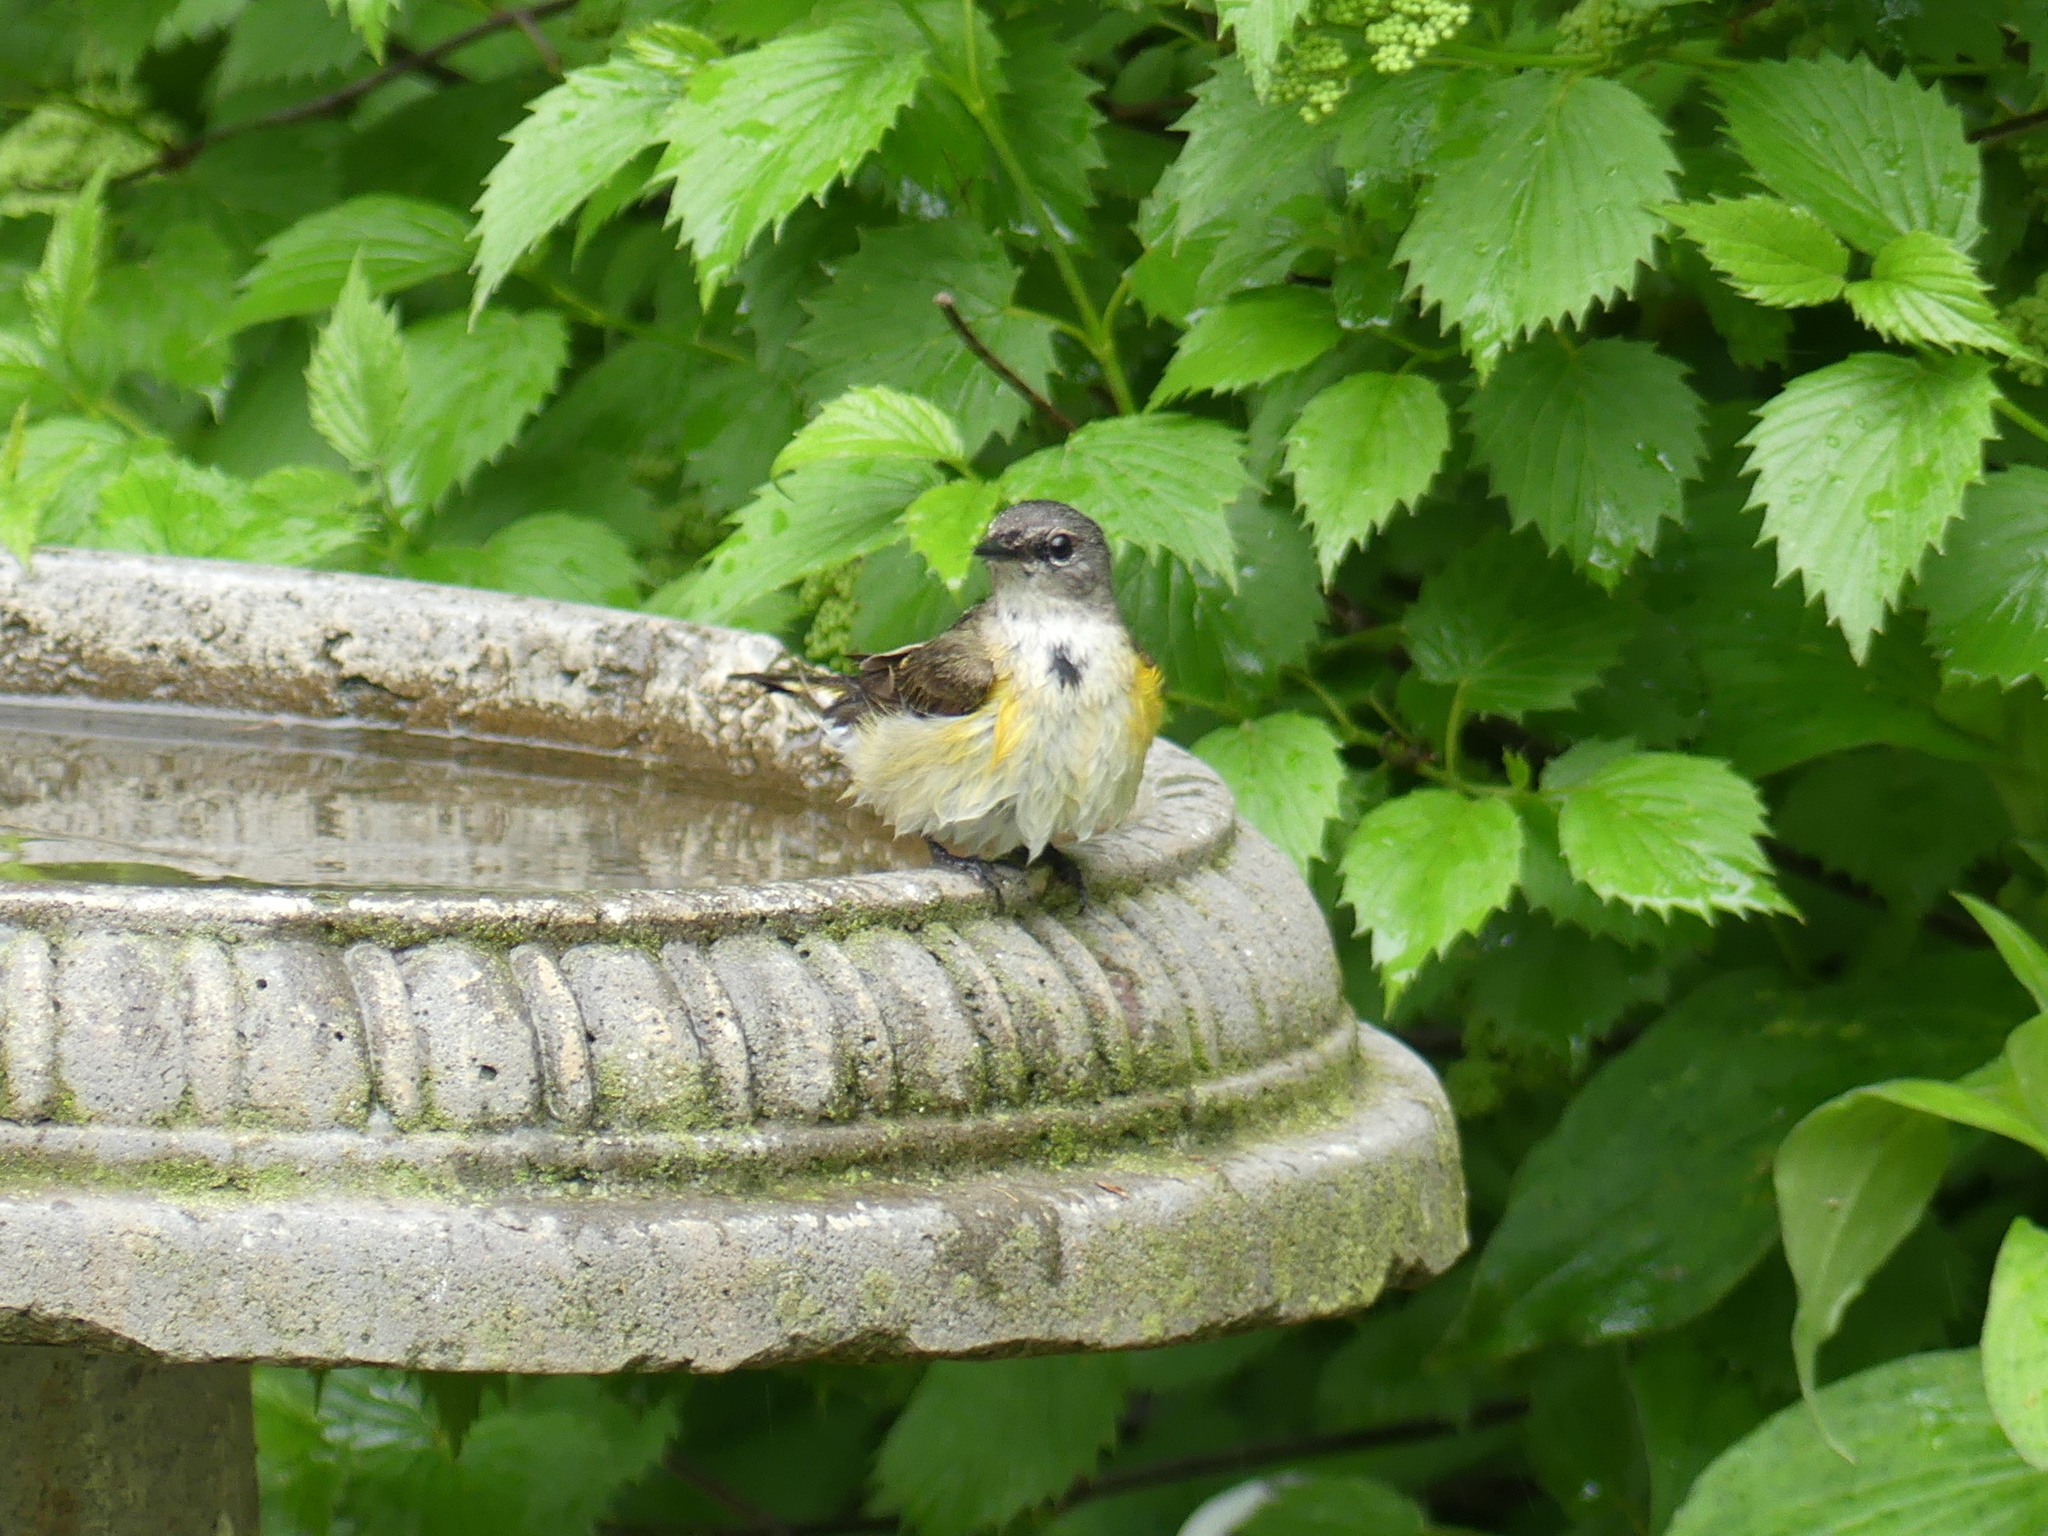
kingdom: Animalia
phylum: Chordata
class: Aves
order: Passeriformes
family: Parulidae
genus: Setophaga
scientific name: Setophaga ruticilla
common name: American redstart
